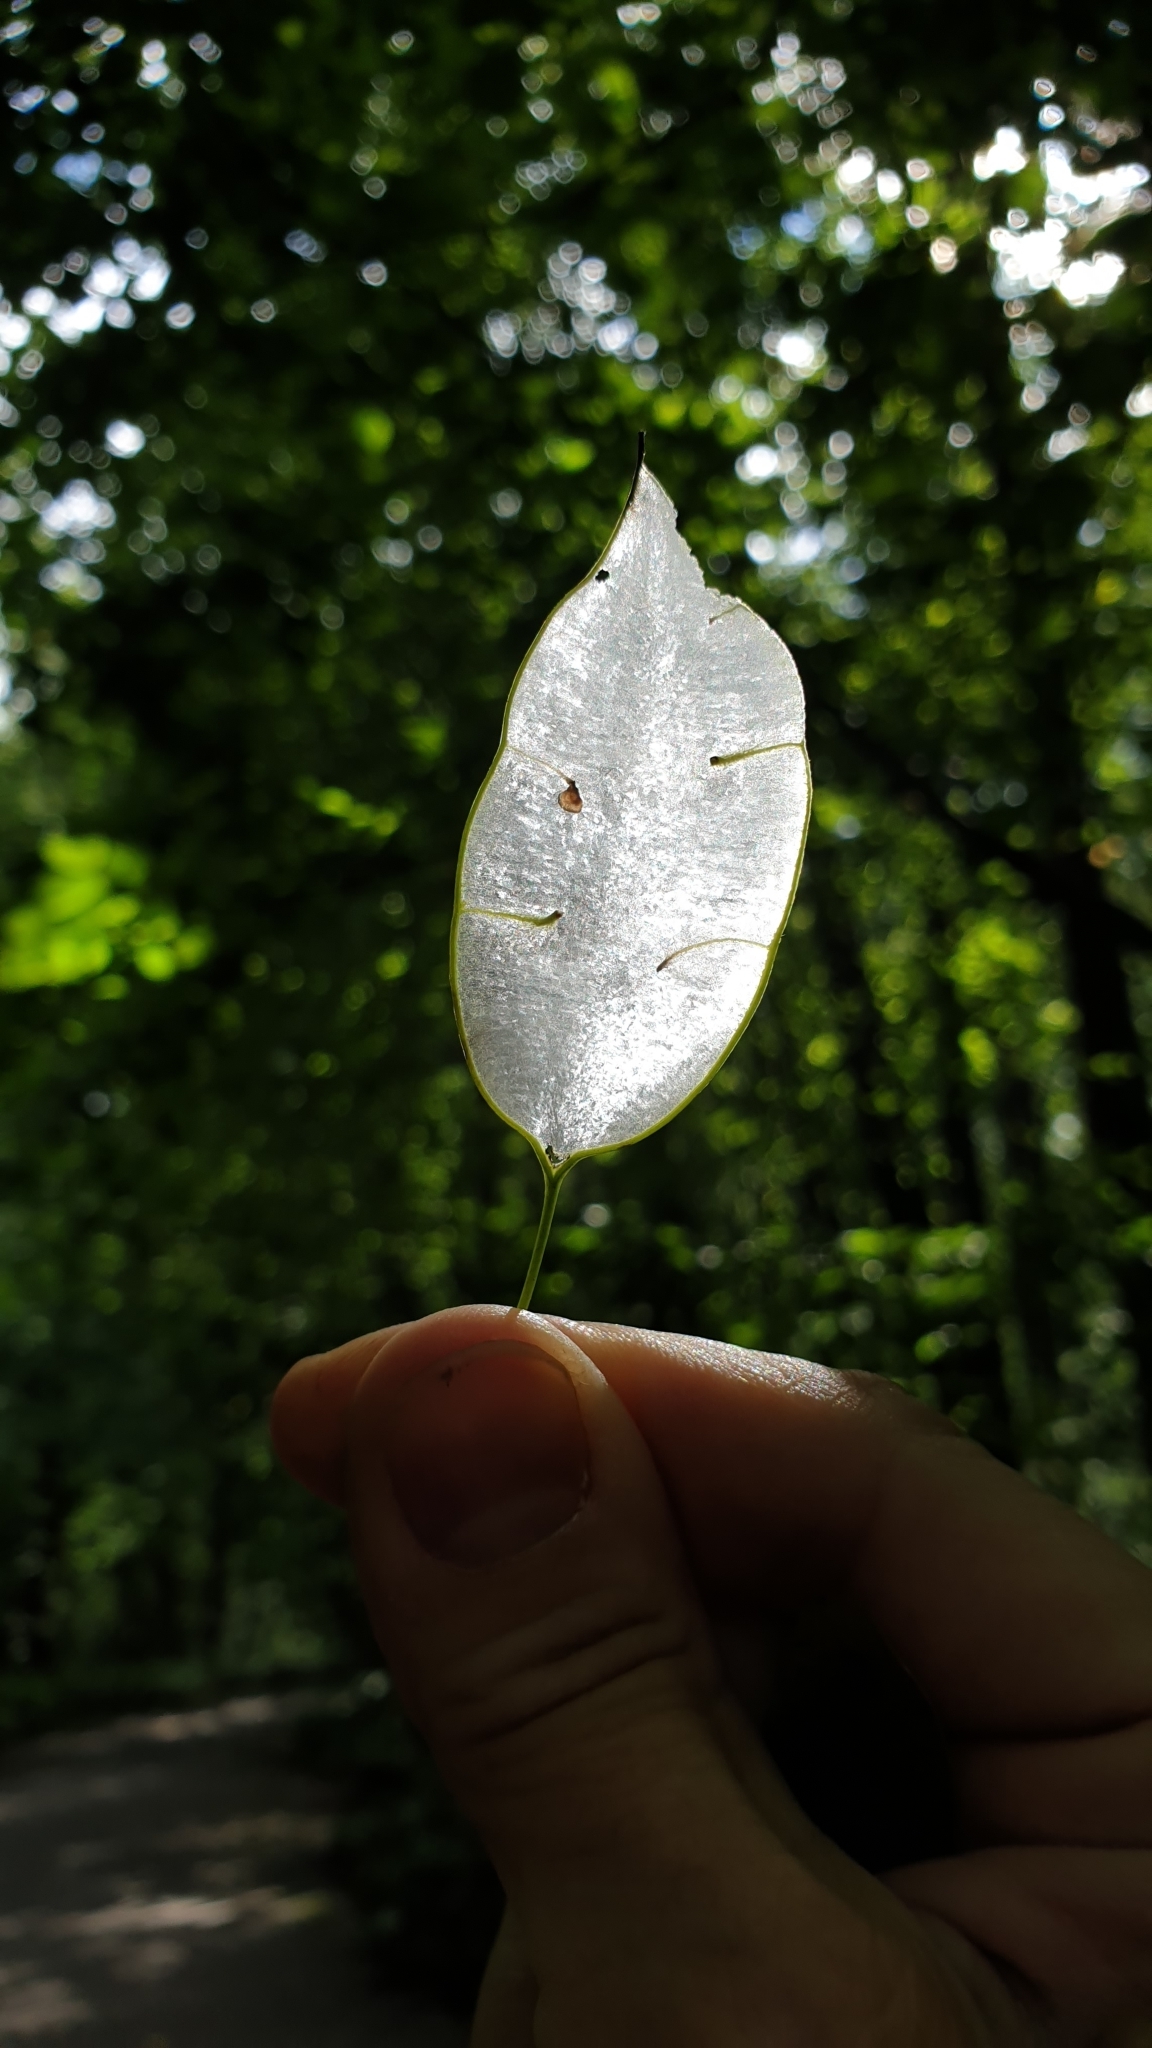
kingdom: Plantae
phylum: Tracheophyta
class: Magnoliopsida
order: Brassicales
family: Brassicaceae
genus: Lunaria
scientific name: Lunaria rediviva
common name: Perennial honesty
